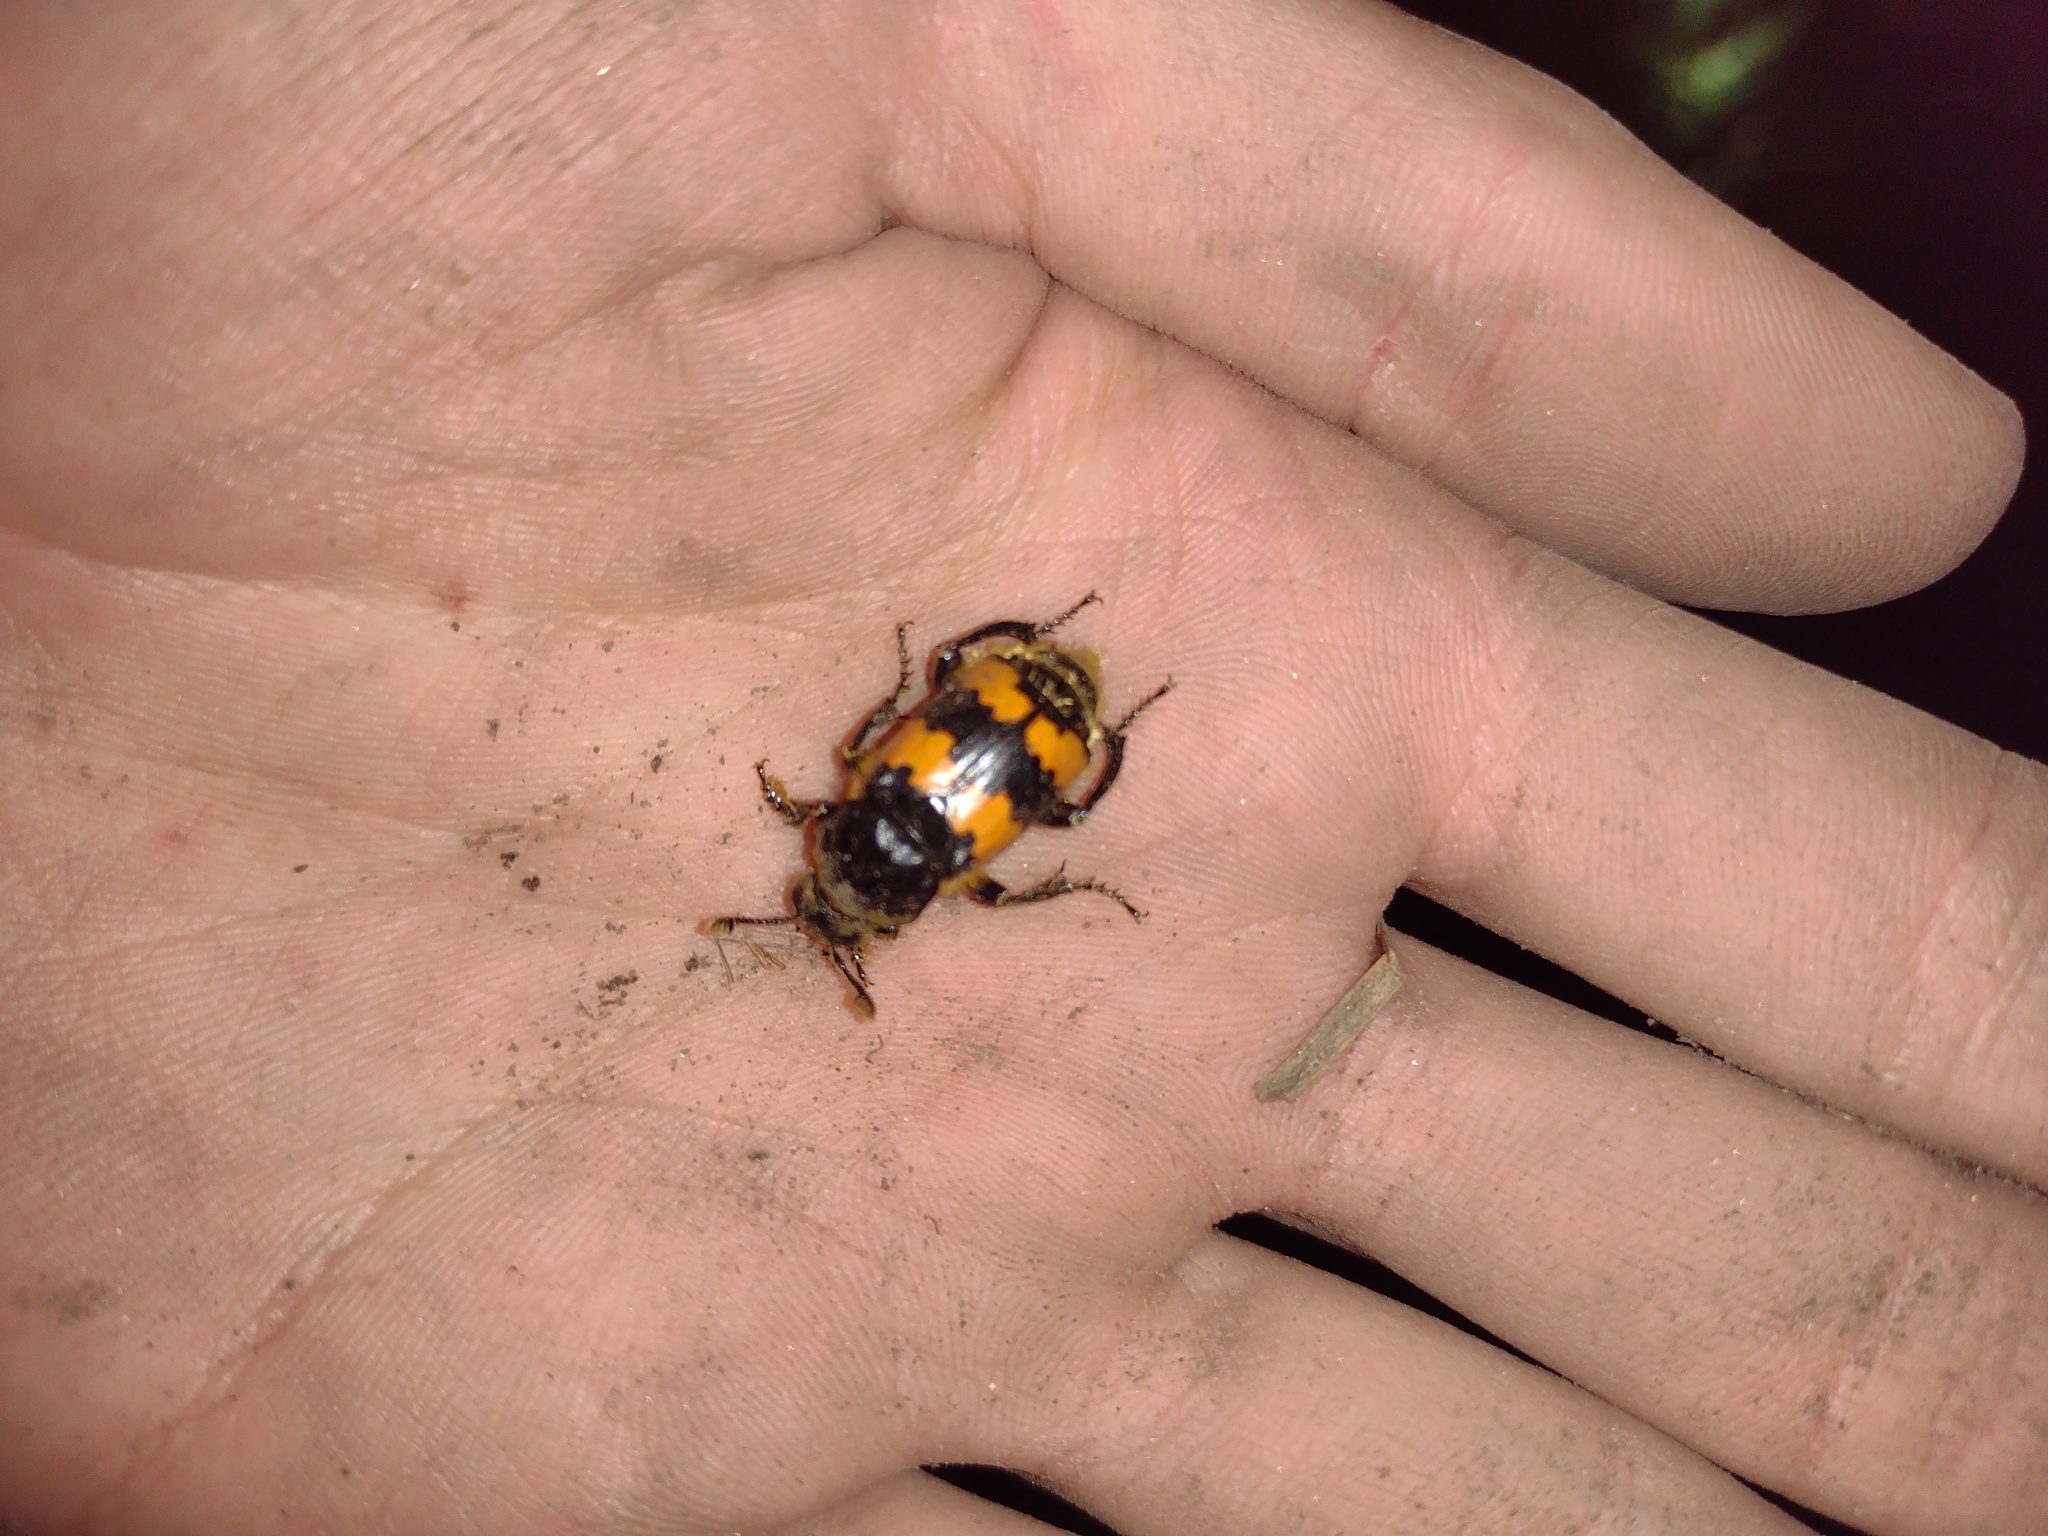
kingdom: Animalia
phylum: Arthropoda
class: Insecta
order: Coleoptera
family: Staphylinidae
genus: Nicrophorus
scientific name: Nicrophorus vespillo
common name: Common burying beetle
